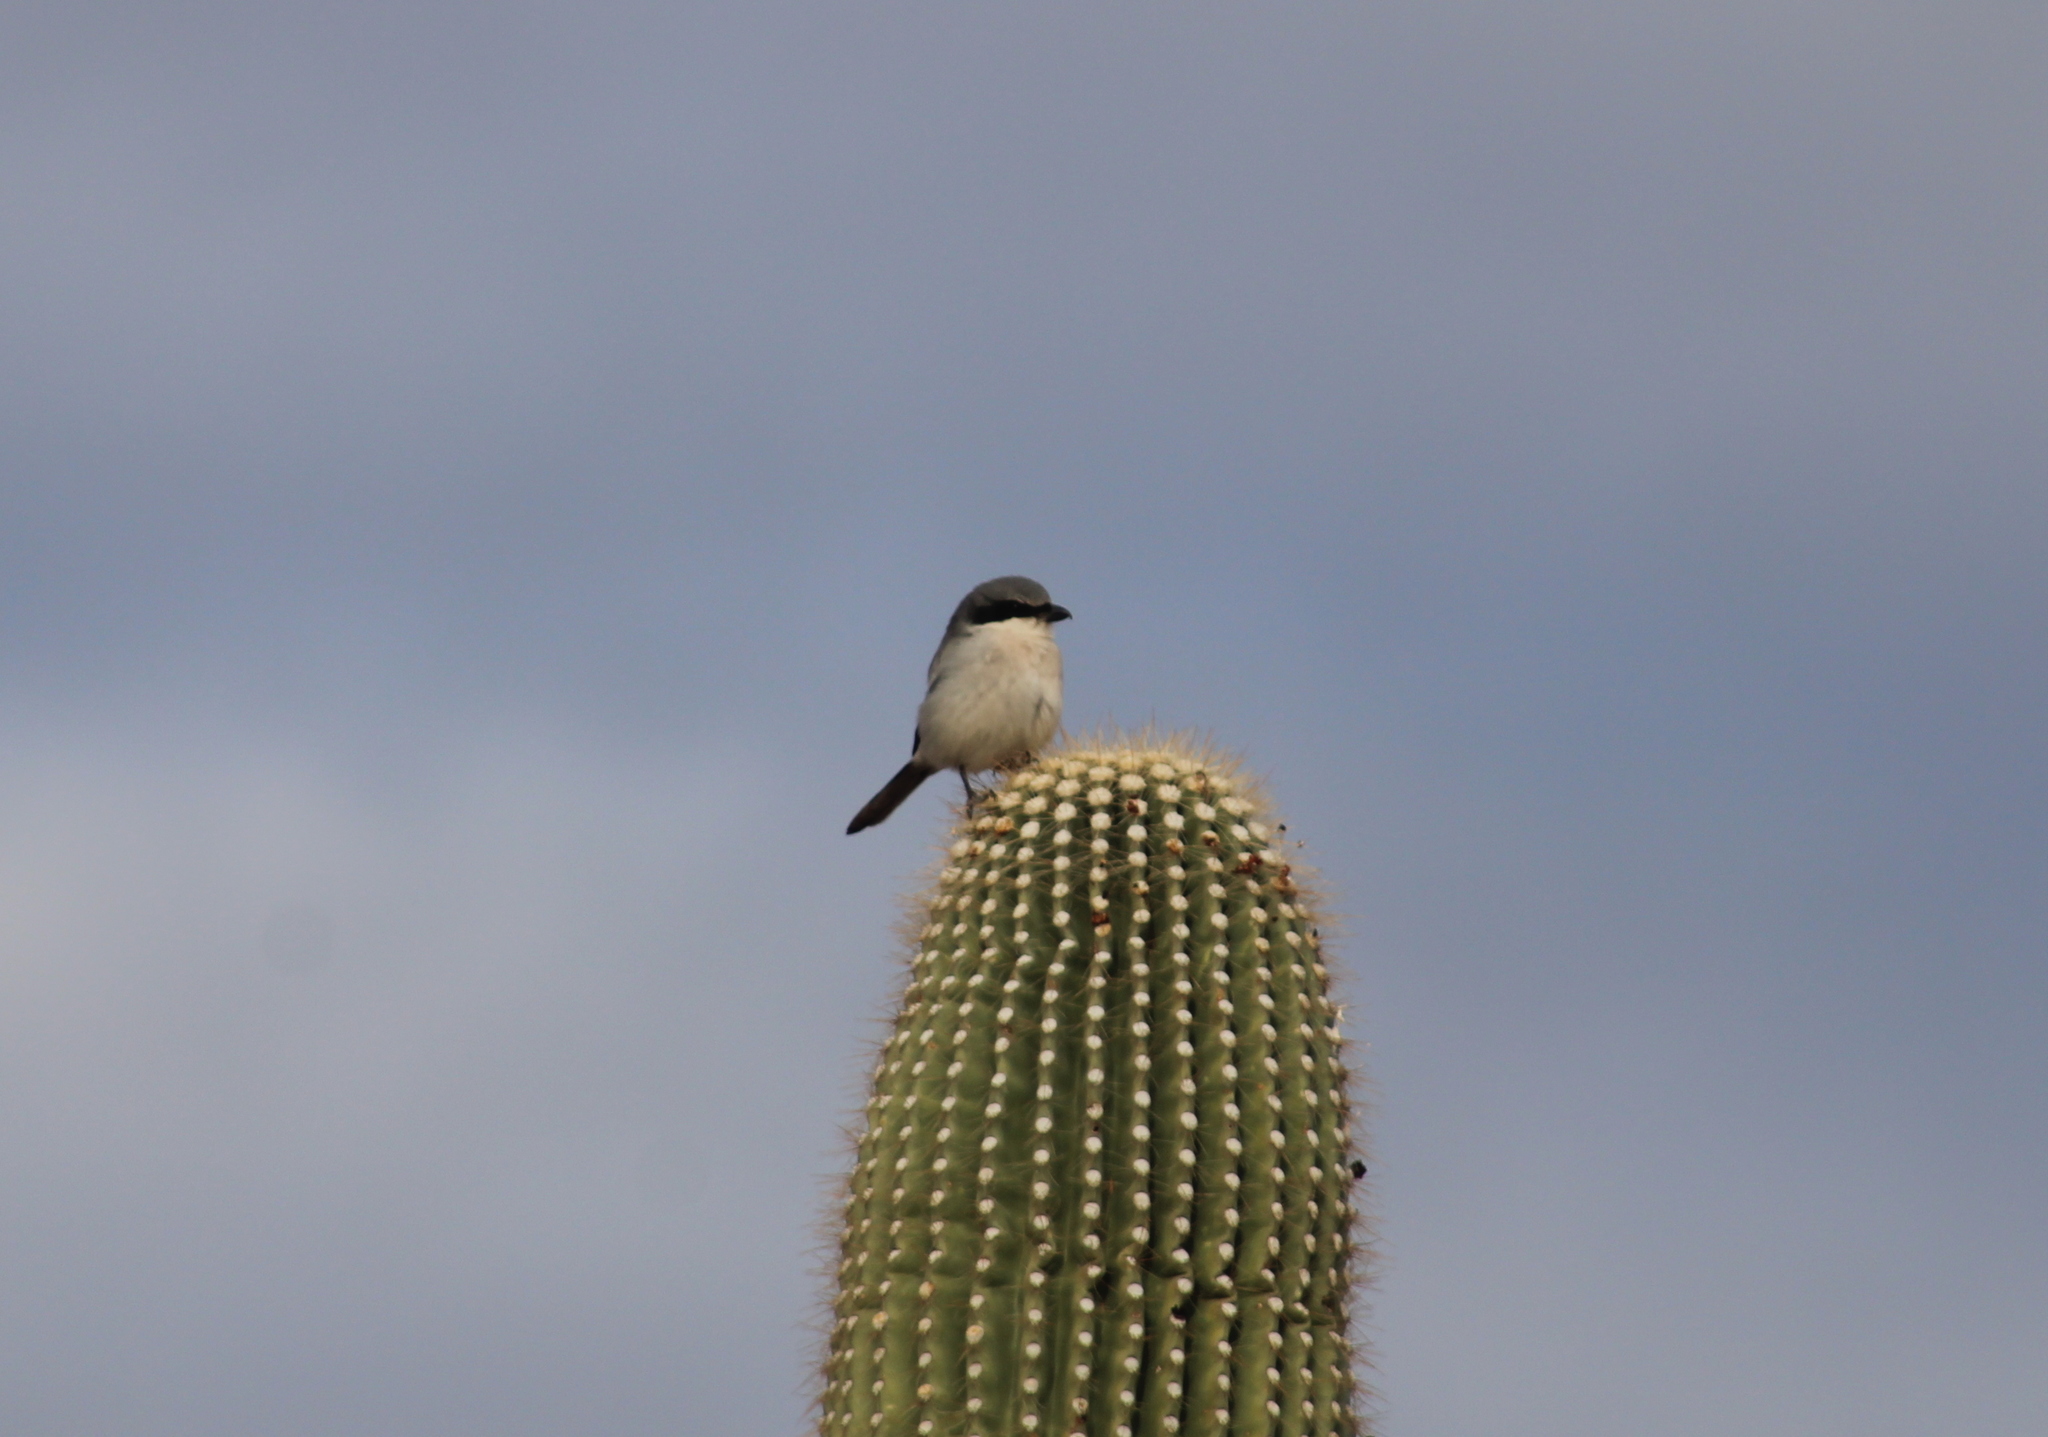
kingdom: Animalia
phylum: Chordata
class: Aves
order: Passeriformes
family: Laniidae
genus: Lanius
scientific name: Lanius ludovicianus
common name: Loggerhead shrike
